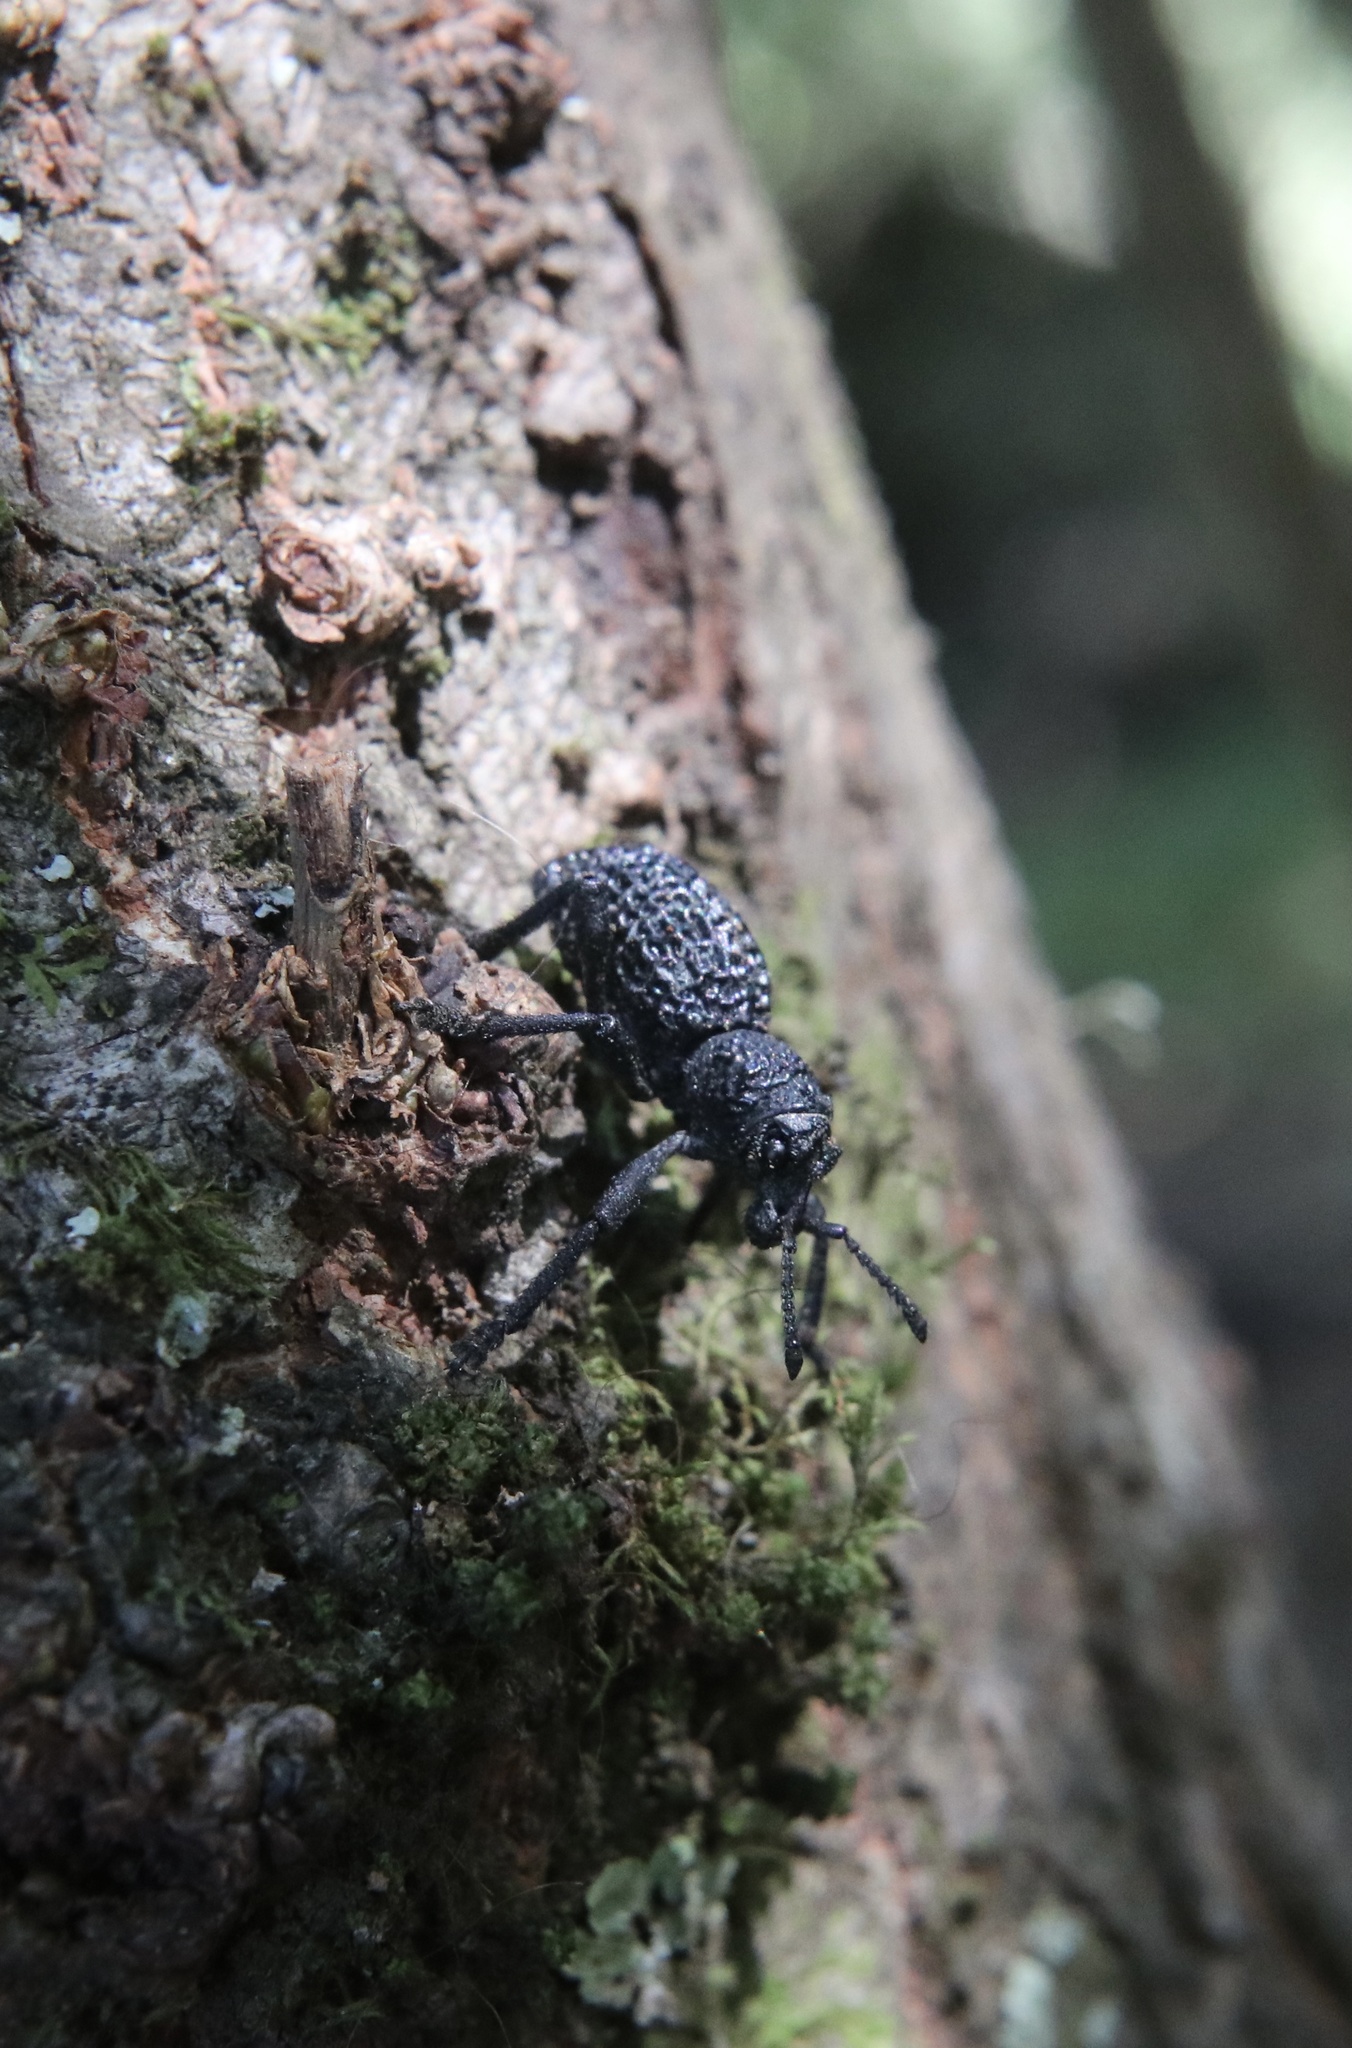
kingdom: Animalia
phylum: Arthropoda
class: Insecta
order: Coleoptera
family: Curculionidae
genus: Aegorhinus
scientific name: Aegorhinus superciliosus
